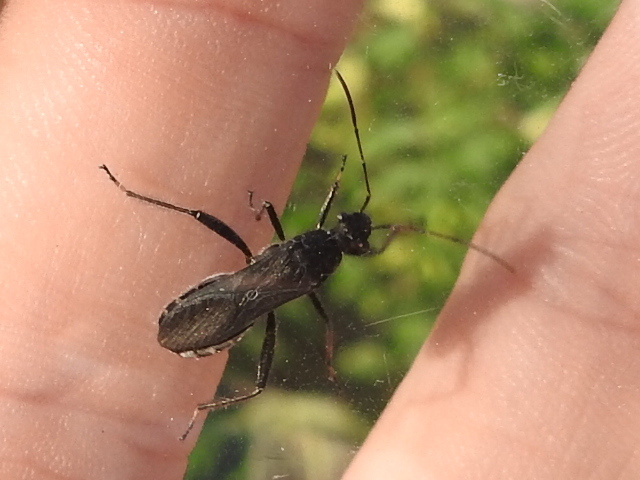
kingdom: Animalia
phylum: Arthropoda
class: Insecta
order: Hemiptera
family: Alydidae
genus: Alydus
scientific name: Alydus eurinus
